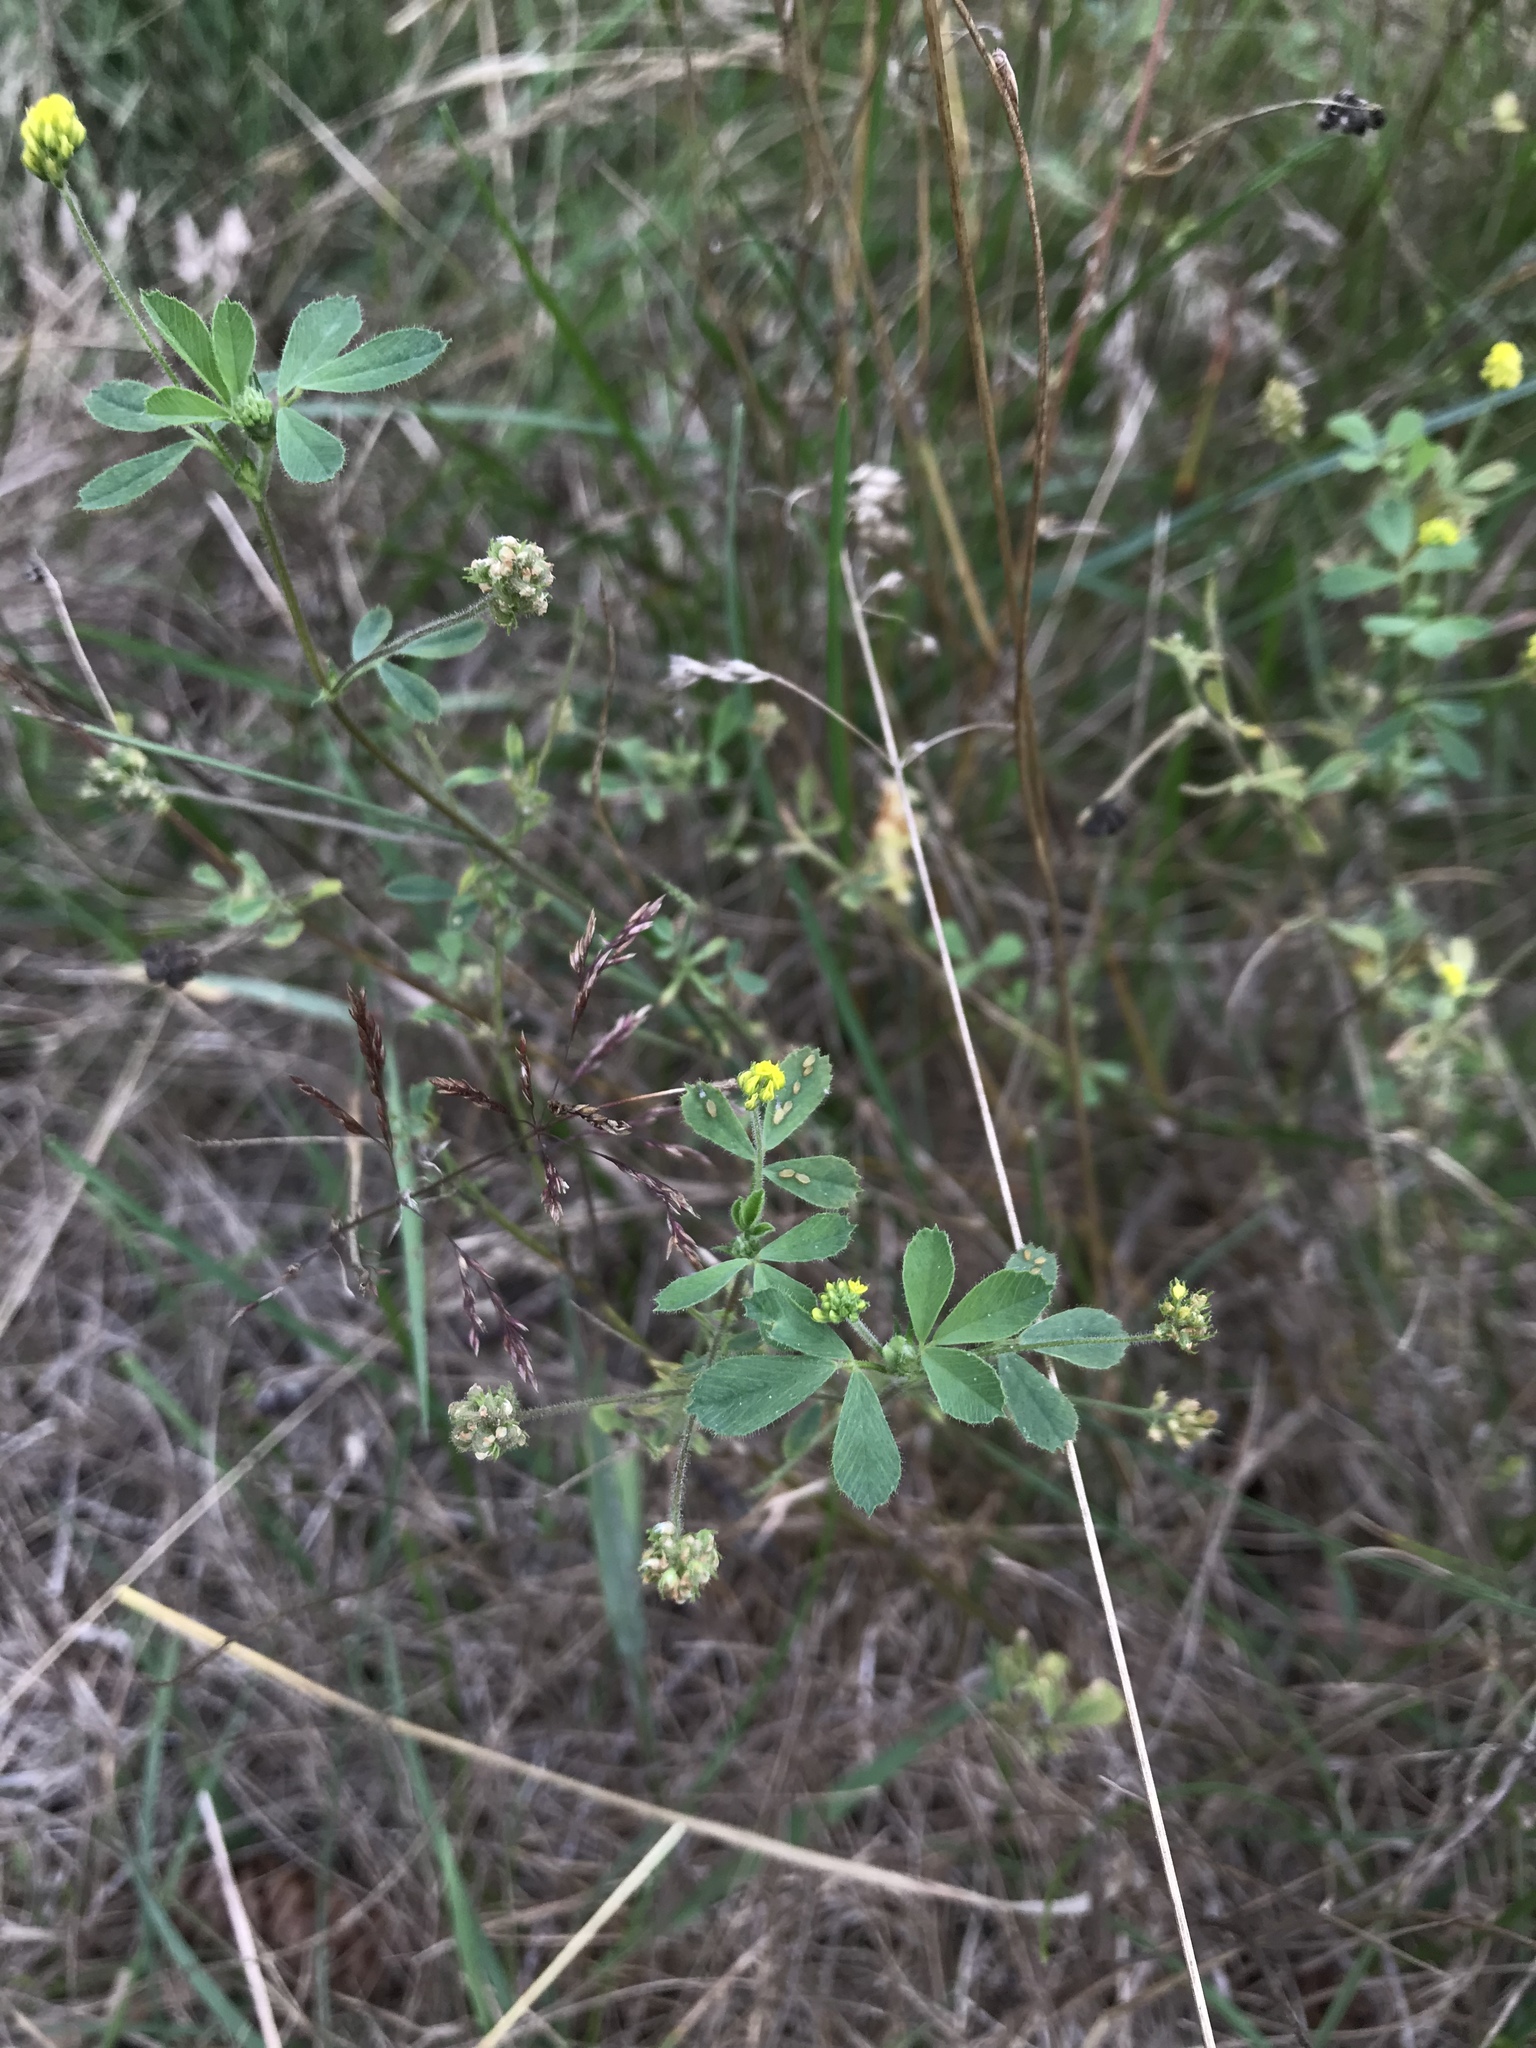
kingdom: Plantae
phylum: Tracheophyta
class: Magnoliopsida
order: Fabales
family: Fabaceae
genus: Medicago
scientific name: Medicago lupulina
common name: Black medick
